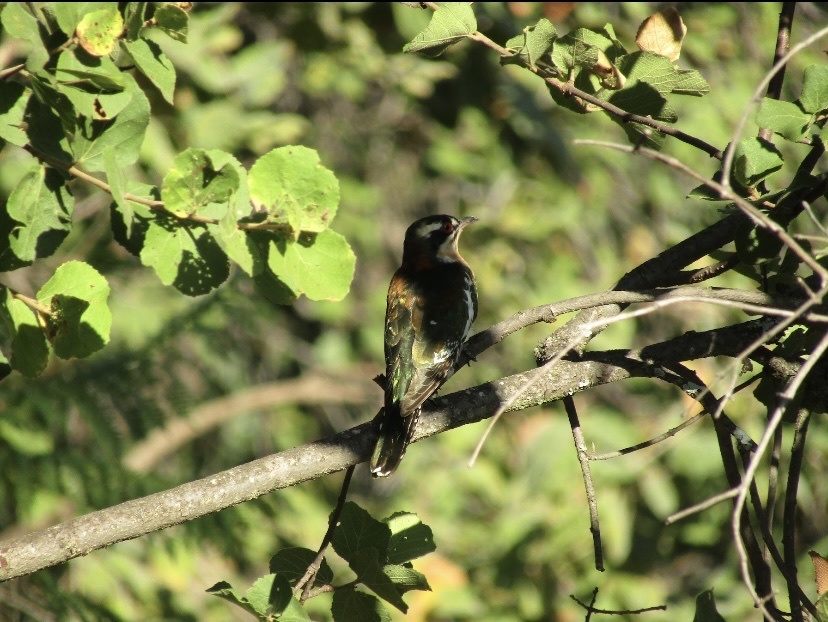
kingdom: Animalia
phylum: Chordata
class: Aves
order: Cuculiformes
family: Cuculidae
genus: Chrysococcyx
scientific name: Chrysococcyx caprius
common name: Diederik cuckoo
